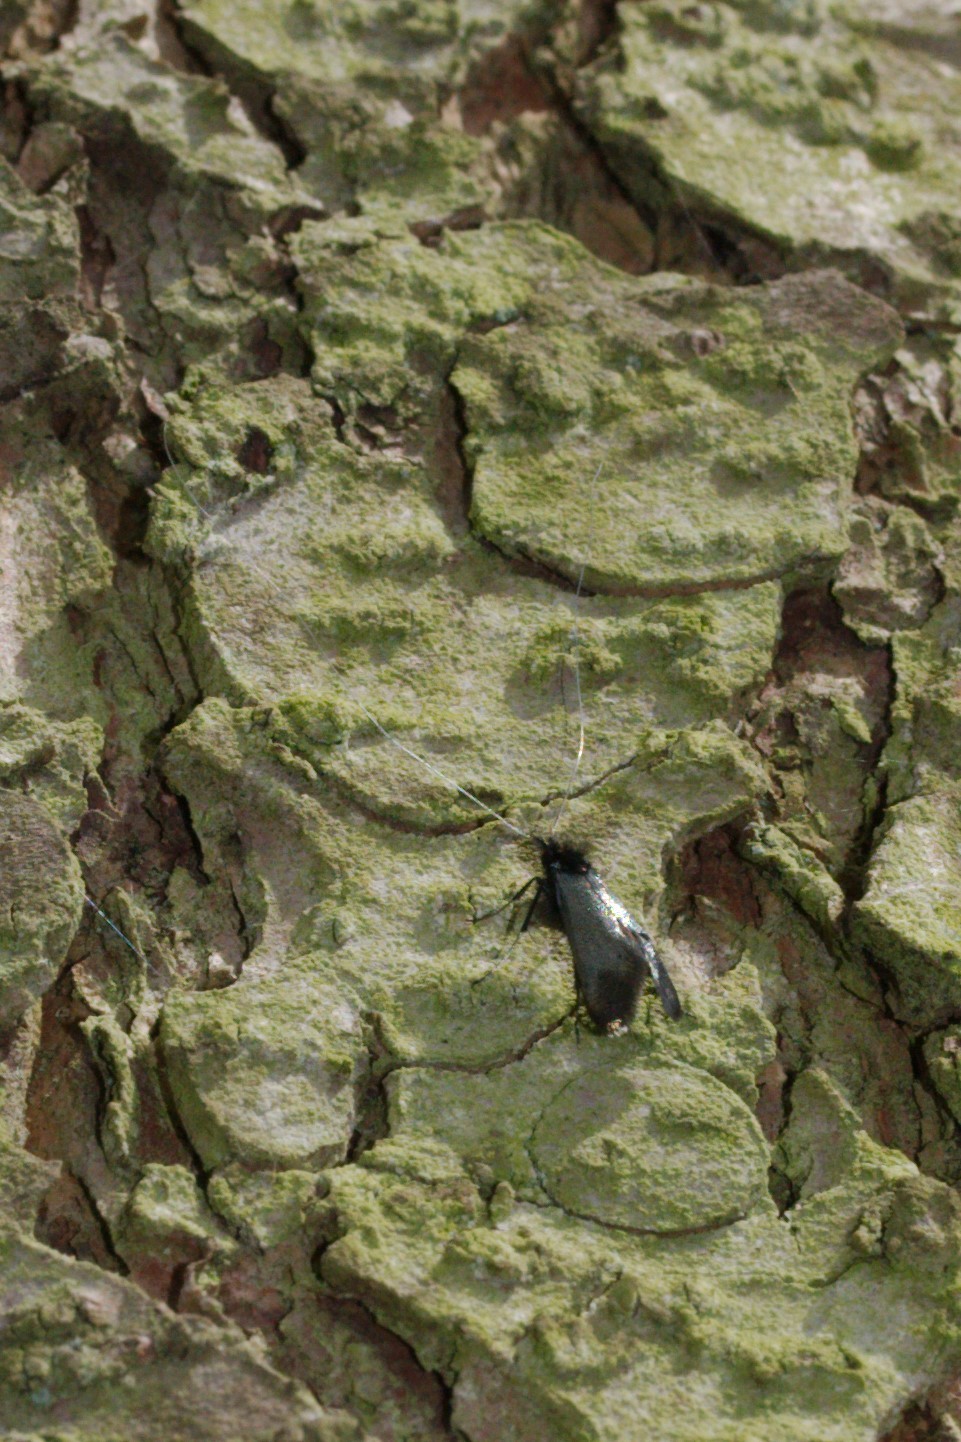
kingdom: Animalia
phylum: Arthropoda
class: Insecta
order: Lepidoptera
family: Adelidae
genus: Adela
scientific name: Adela viridella
